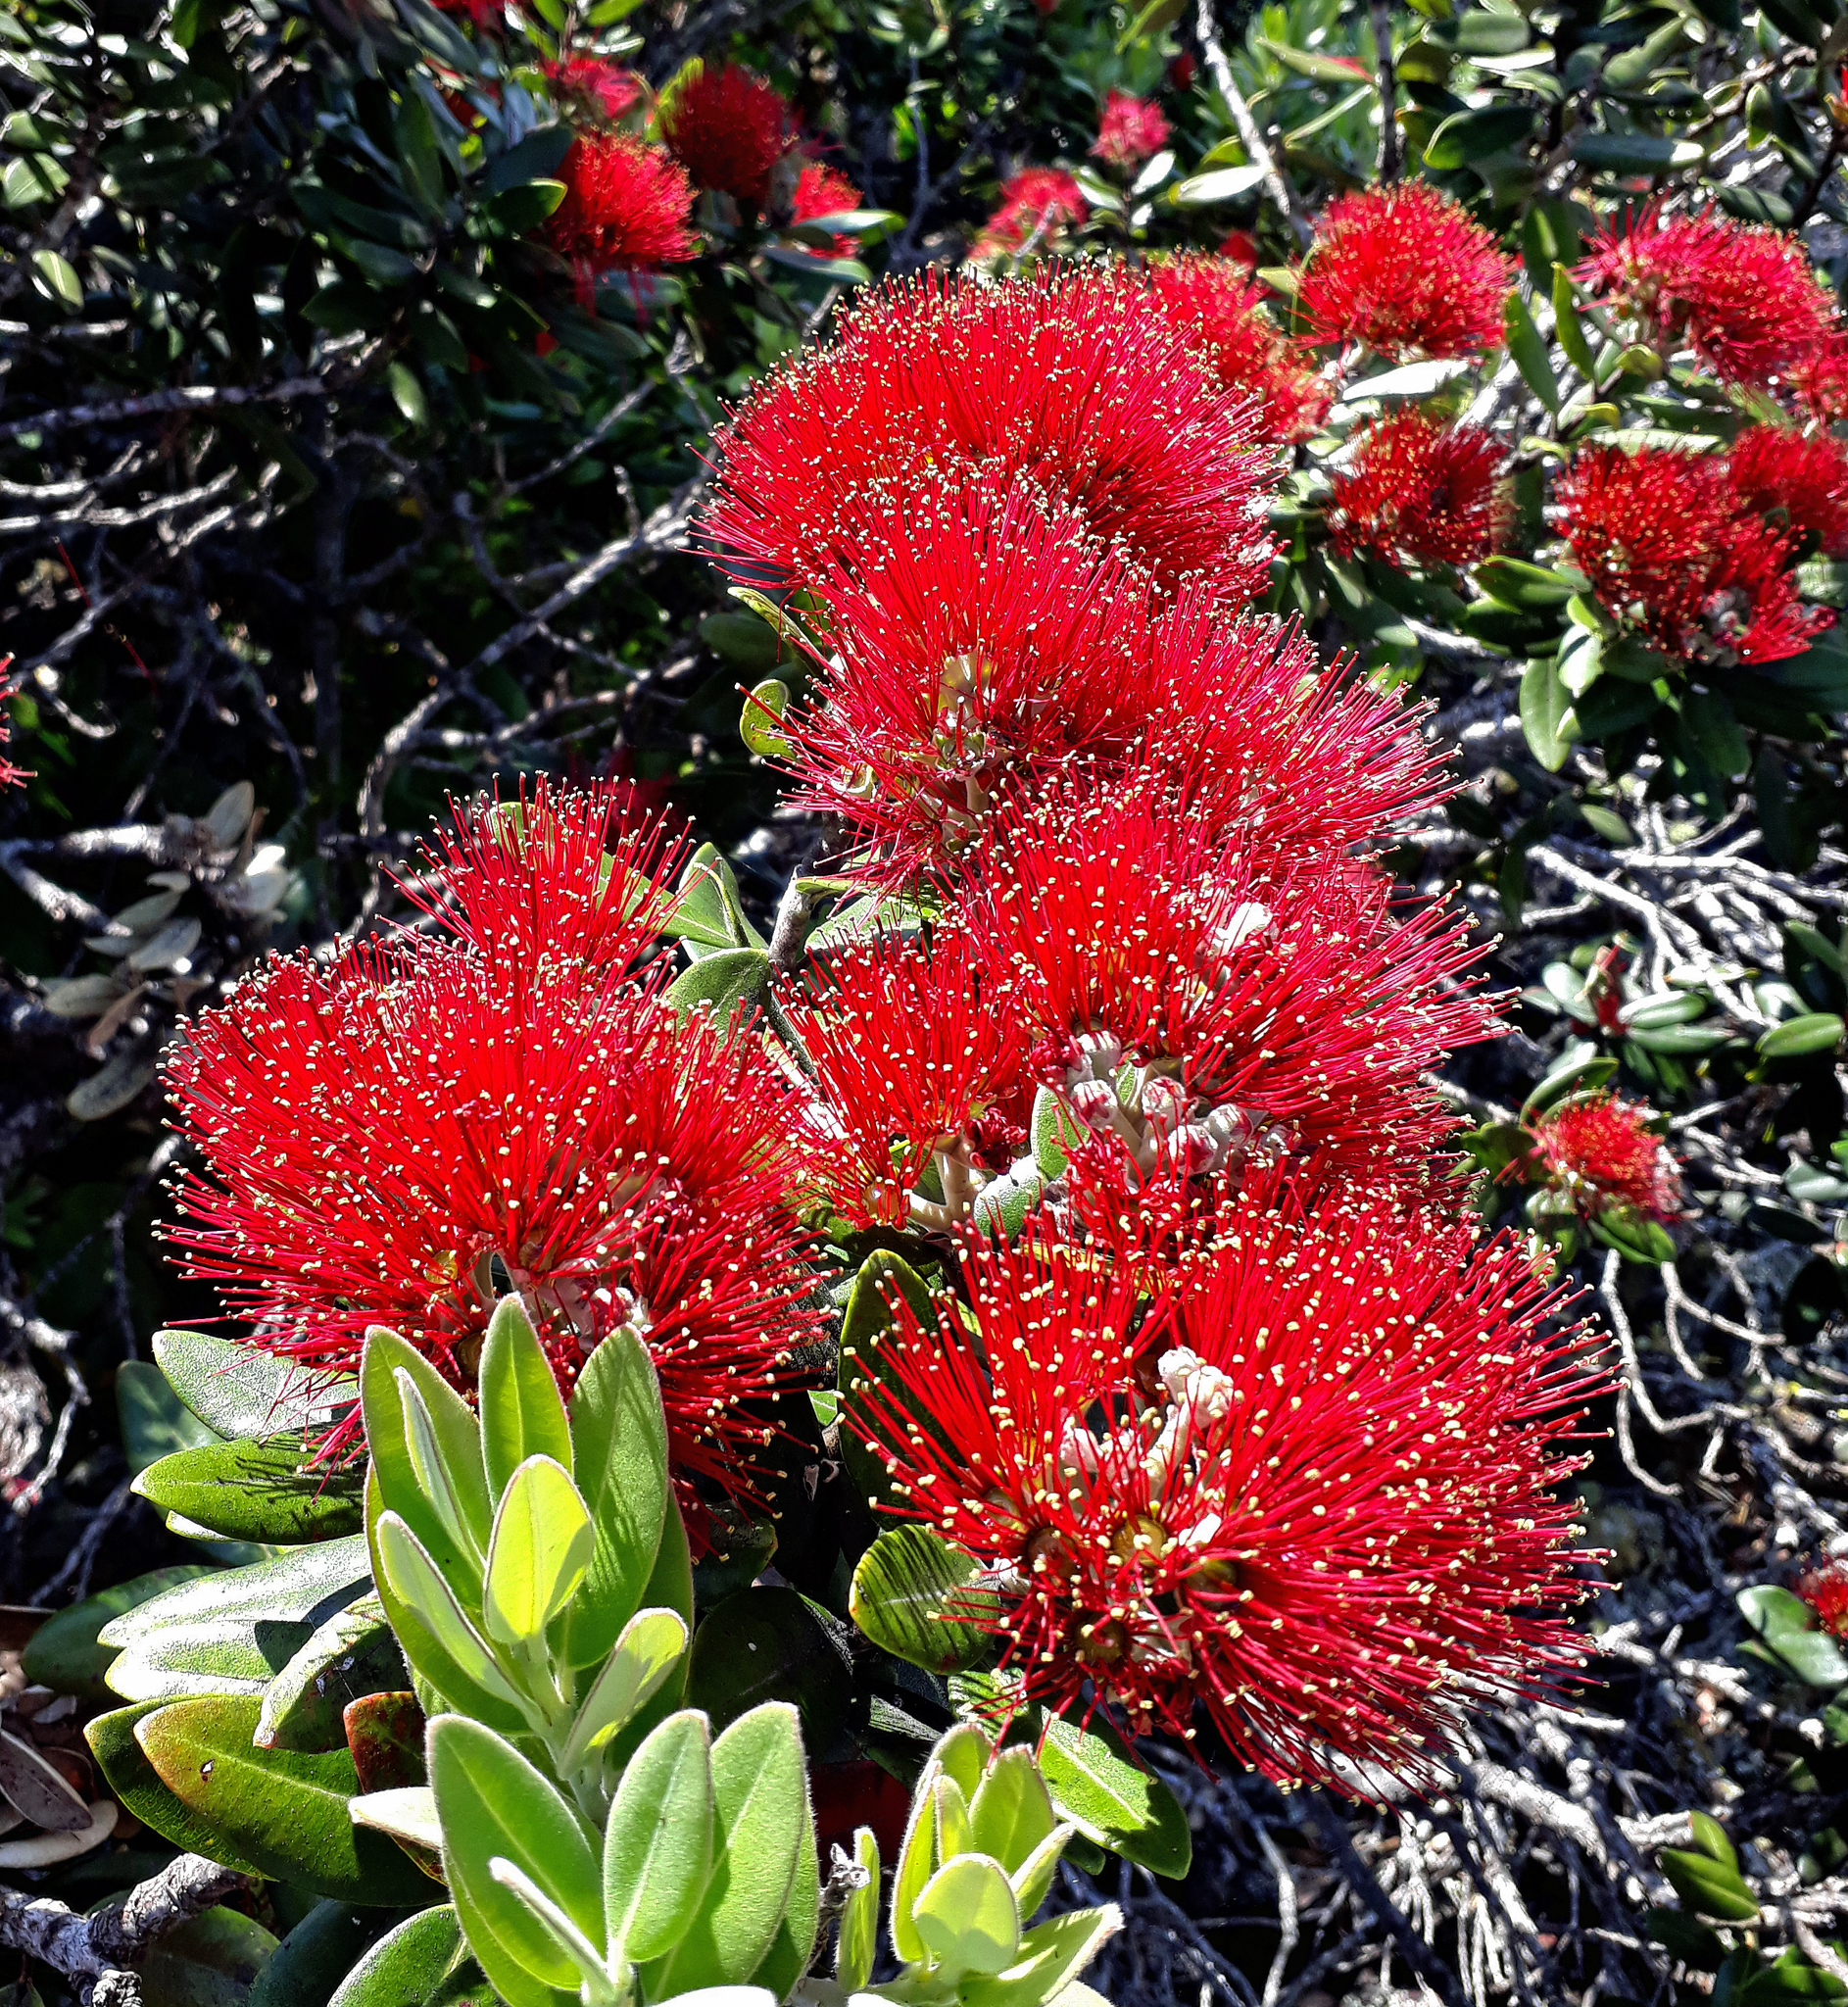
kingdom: Plantae
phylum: Tracheophyta
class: Magnoliopsida
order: Myrtales
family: Myrtaceae
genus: Metrosideros
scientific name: Metrosideros excelsa
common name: New zealand christmastree
